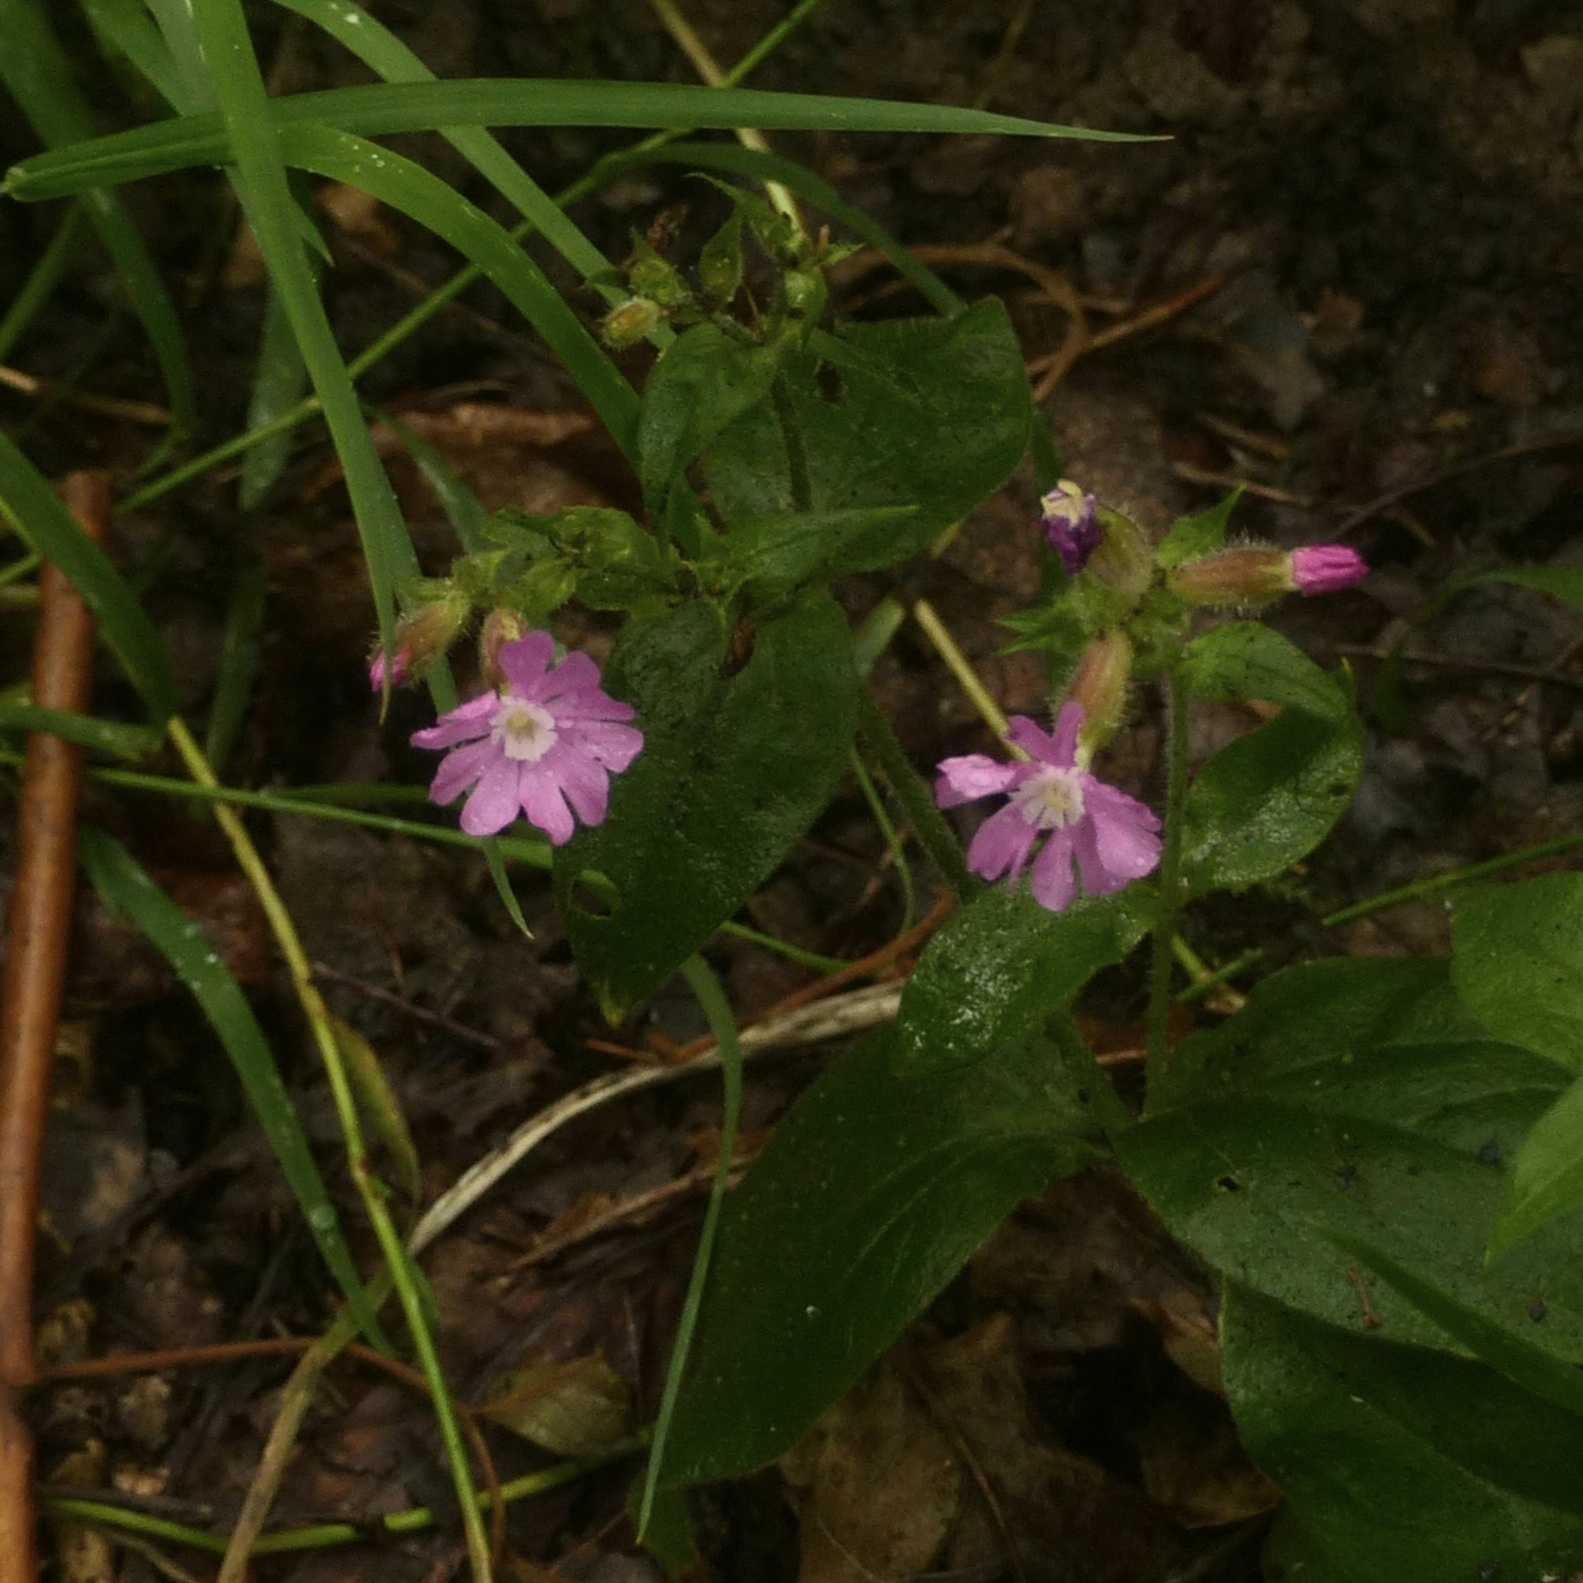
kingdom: Plantae
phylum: Tracheophyta
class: Magnoliopsida
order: Caryophyllales
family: Caryophyllaceae
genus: Silene
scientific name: Silene dioica
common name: Red campion
